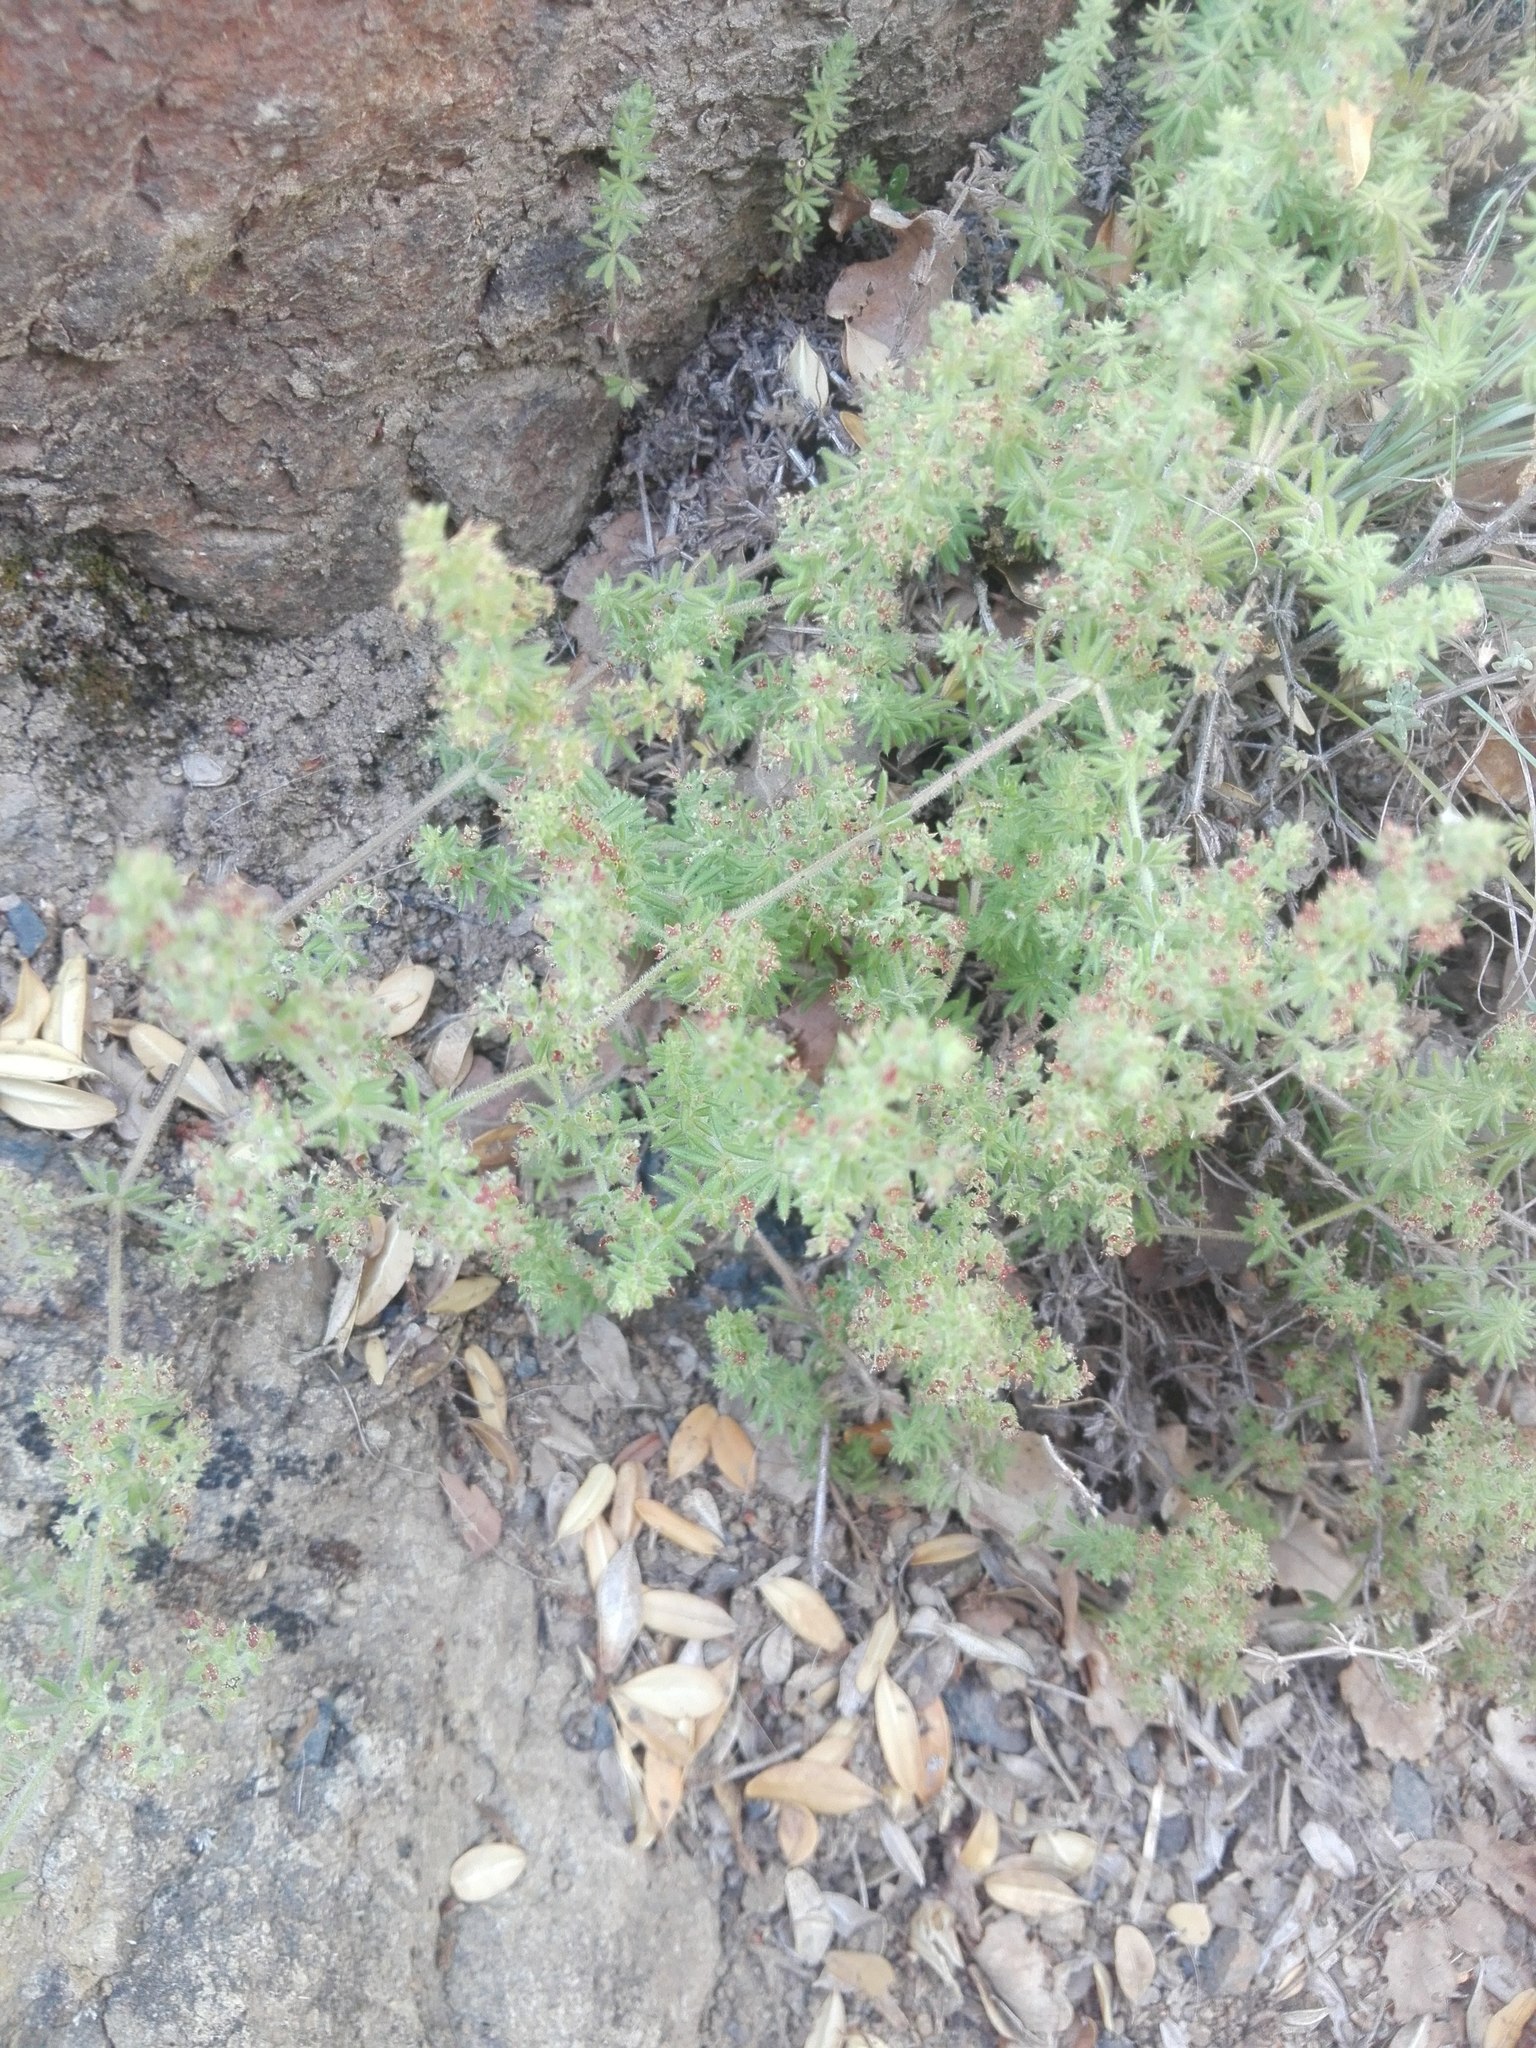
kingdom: Plantae
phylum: Tracheophyta
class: Magnoliopsida
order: Gentianales
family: Rubiaceae
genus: Galium
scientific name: Galium maritimum
